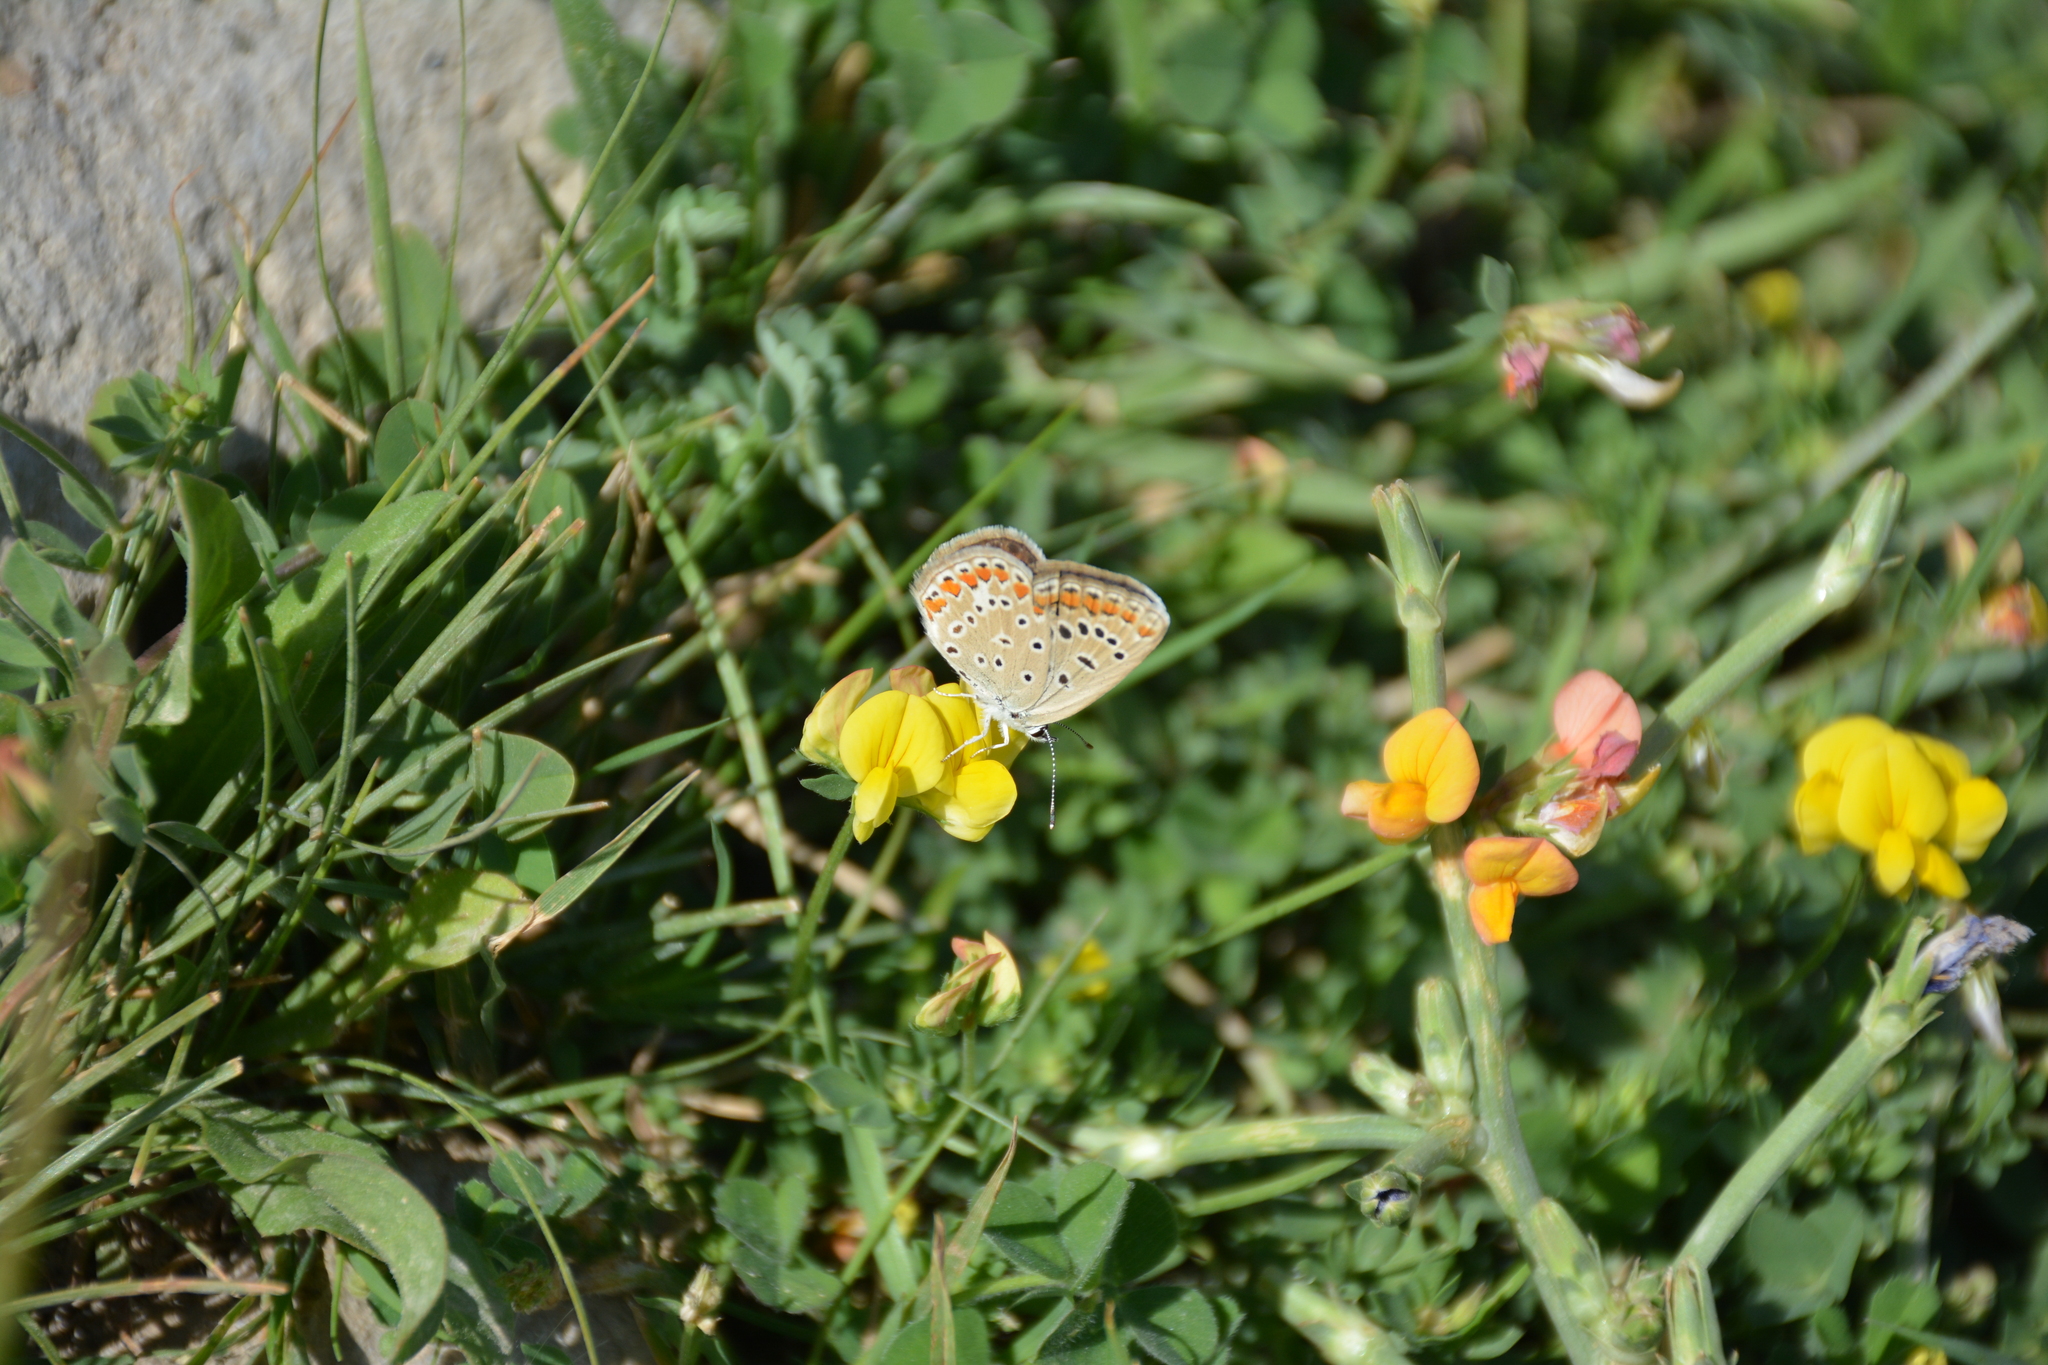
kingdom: Animalia
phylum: Arthropoda
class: Insecta
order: Lepidoptera
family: Lycaenidae
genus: Polyommatus
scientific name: Polyommatus icarus
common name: Common blue
